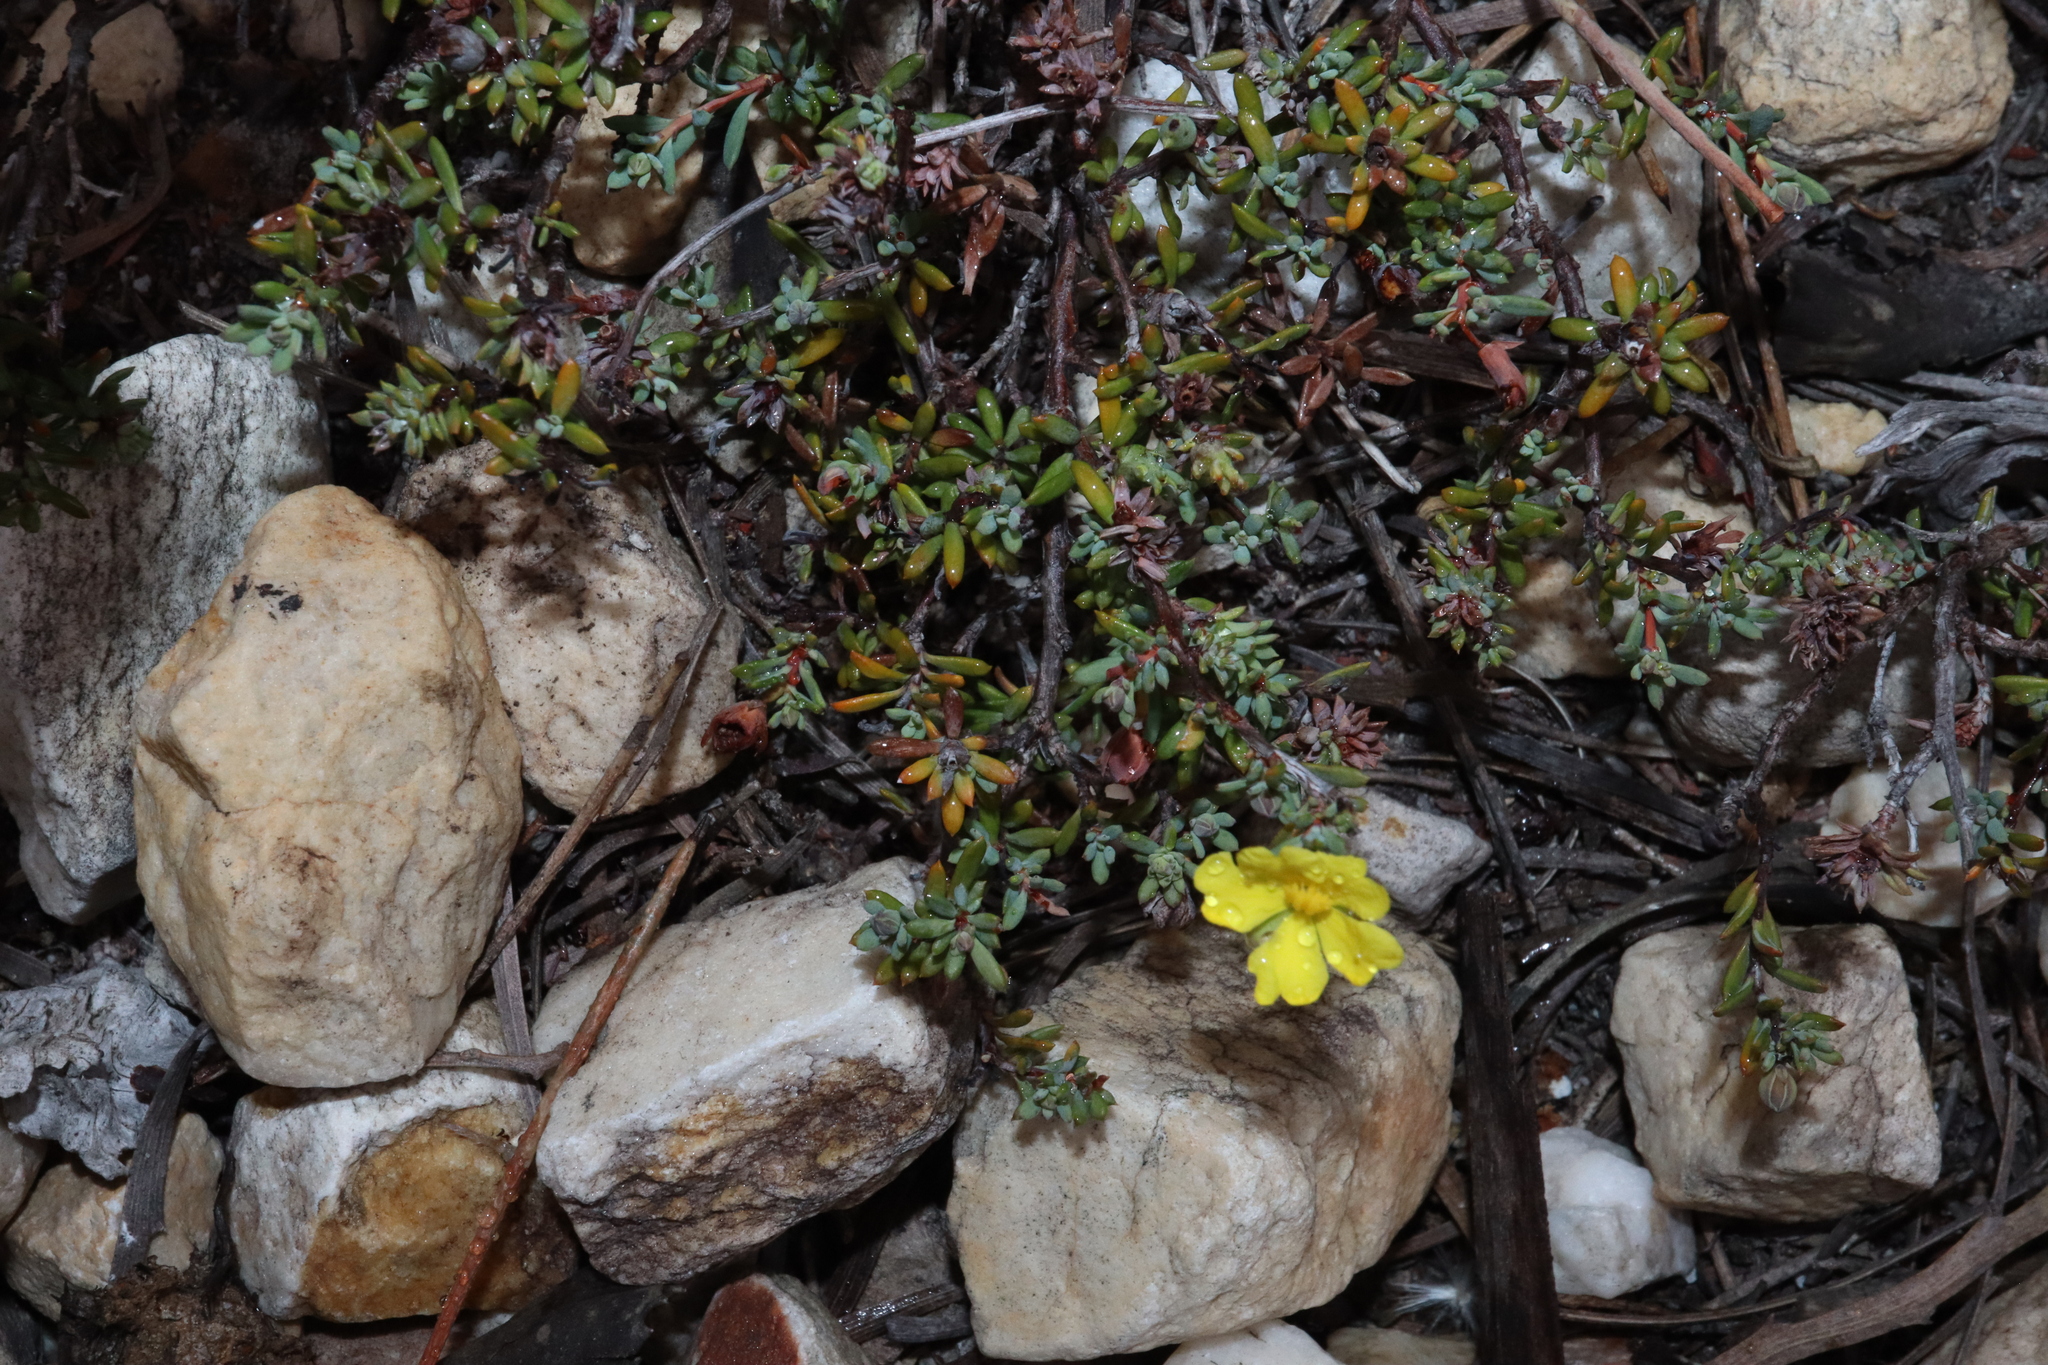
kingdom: Plantae
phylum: Tracheophyta
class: Magnoliopsida
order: Dilleniales
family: Dilleniaceae
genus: Hibbertia
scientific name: Hibbertia gracilipes
